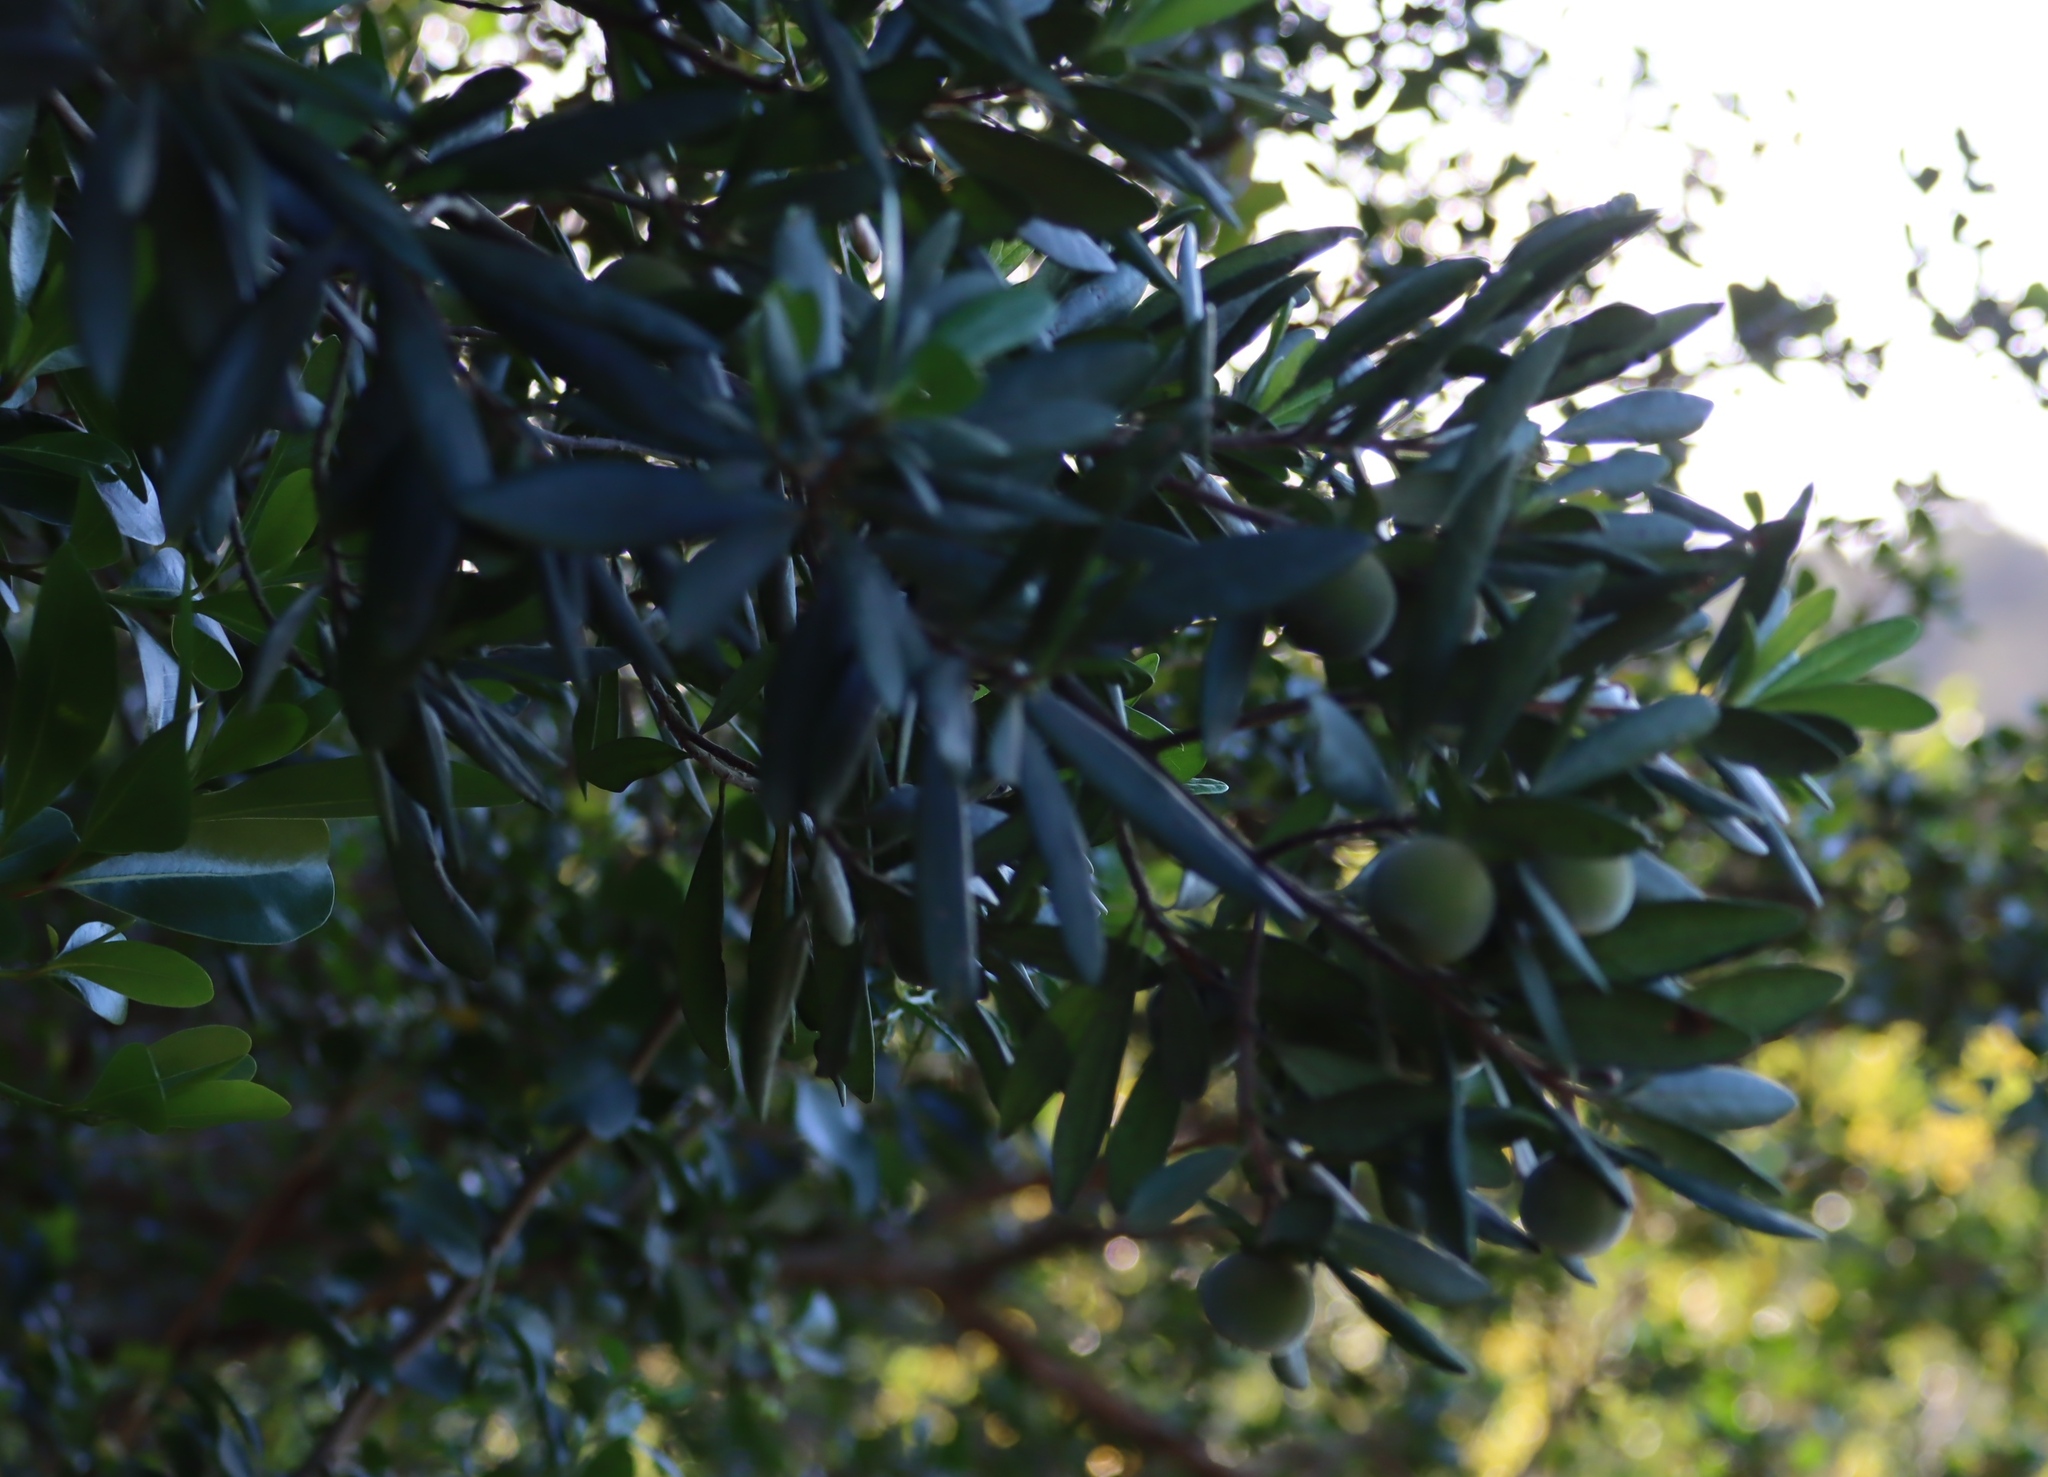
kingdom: Plantae
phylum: Tracheophyta
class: Magnoliopsida
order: Ericales
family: Ebenaceae
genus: Diospyros
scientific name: Diospyros dichrophylla
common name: Common star-apple
